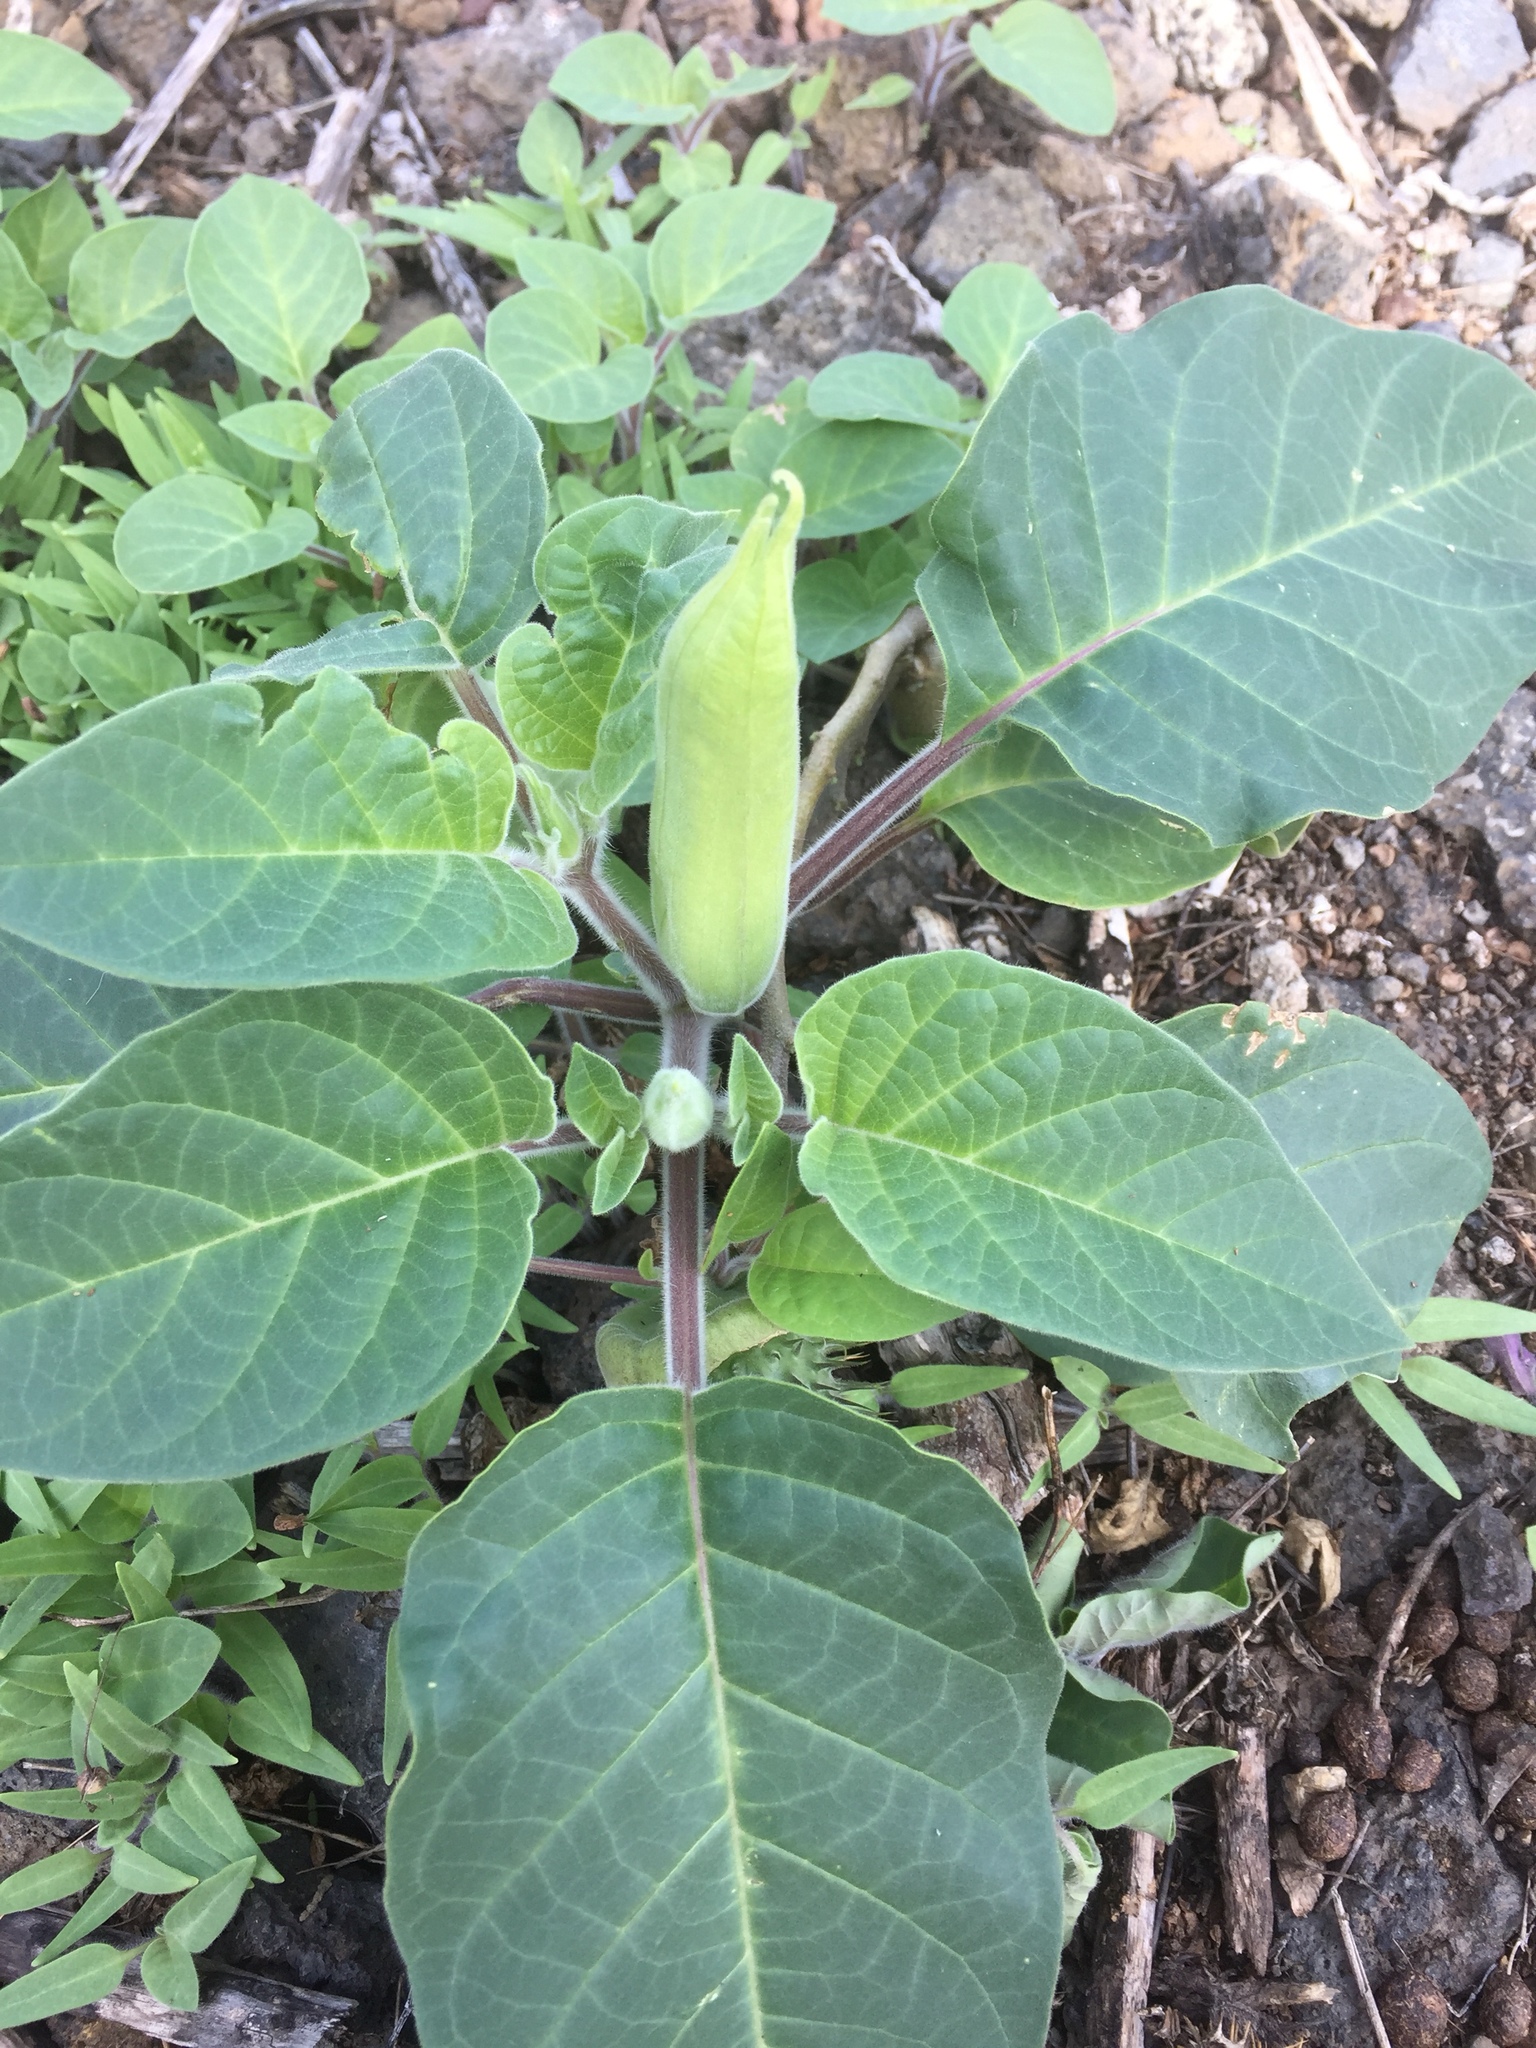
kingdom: Plantae
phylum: Tracheophyta
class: Magnoliopsida
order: Solanales
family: Solanaceae
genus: Datura
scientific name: Datura innoxia
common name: Downy thorn-apple
